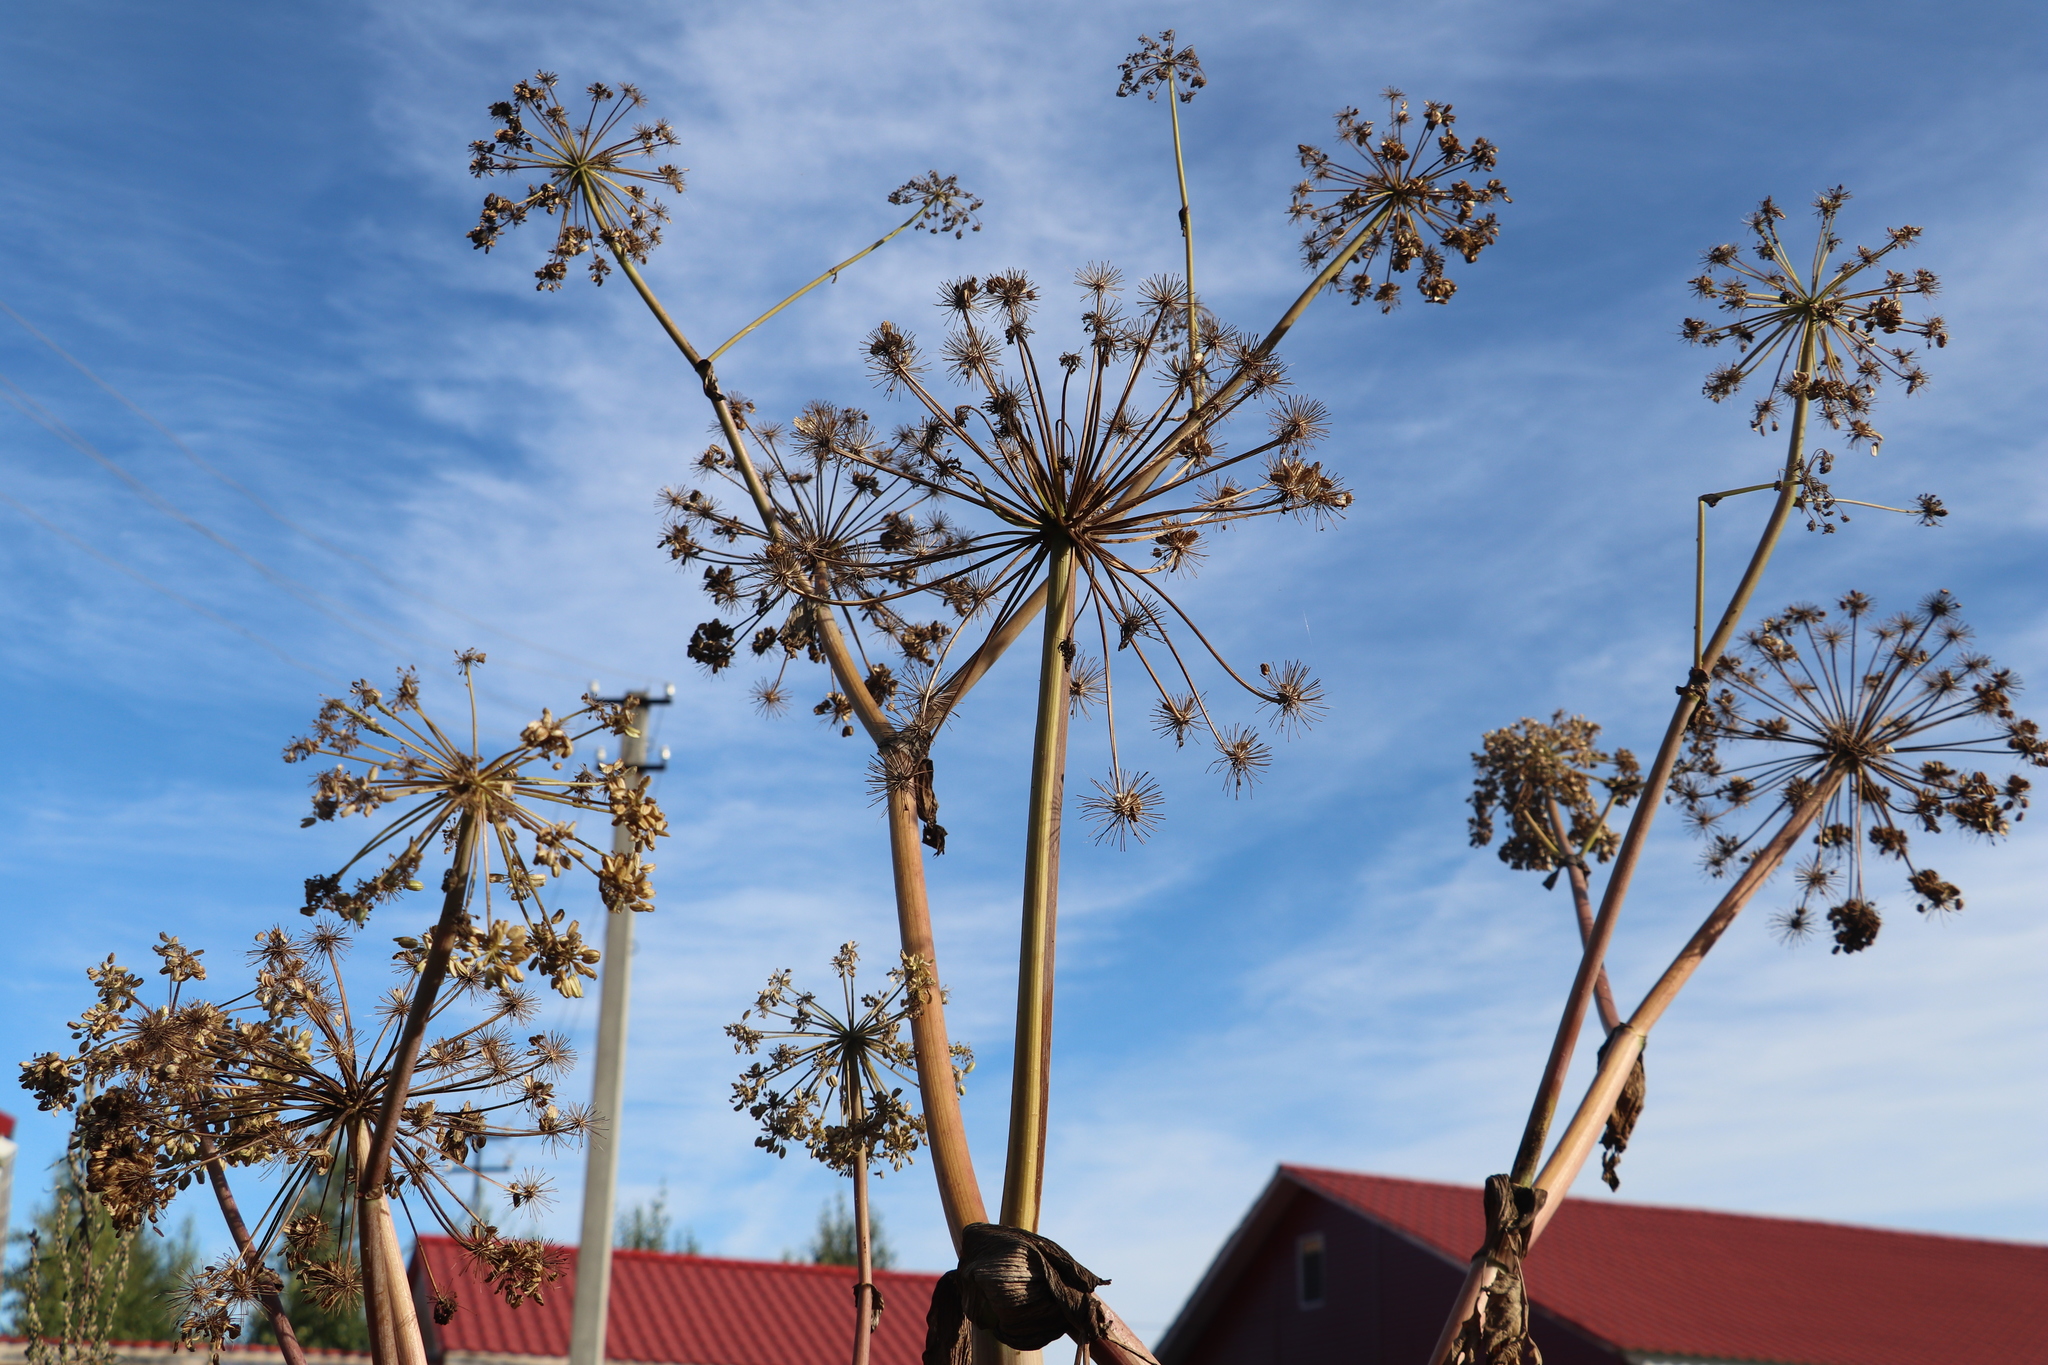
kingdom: Plantae
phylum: Tracheophyta
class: Magnoliopsida
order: Apiales
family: Apiaceae
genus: Angelica
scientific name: Angelica decurrens
